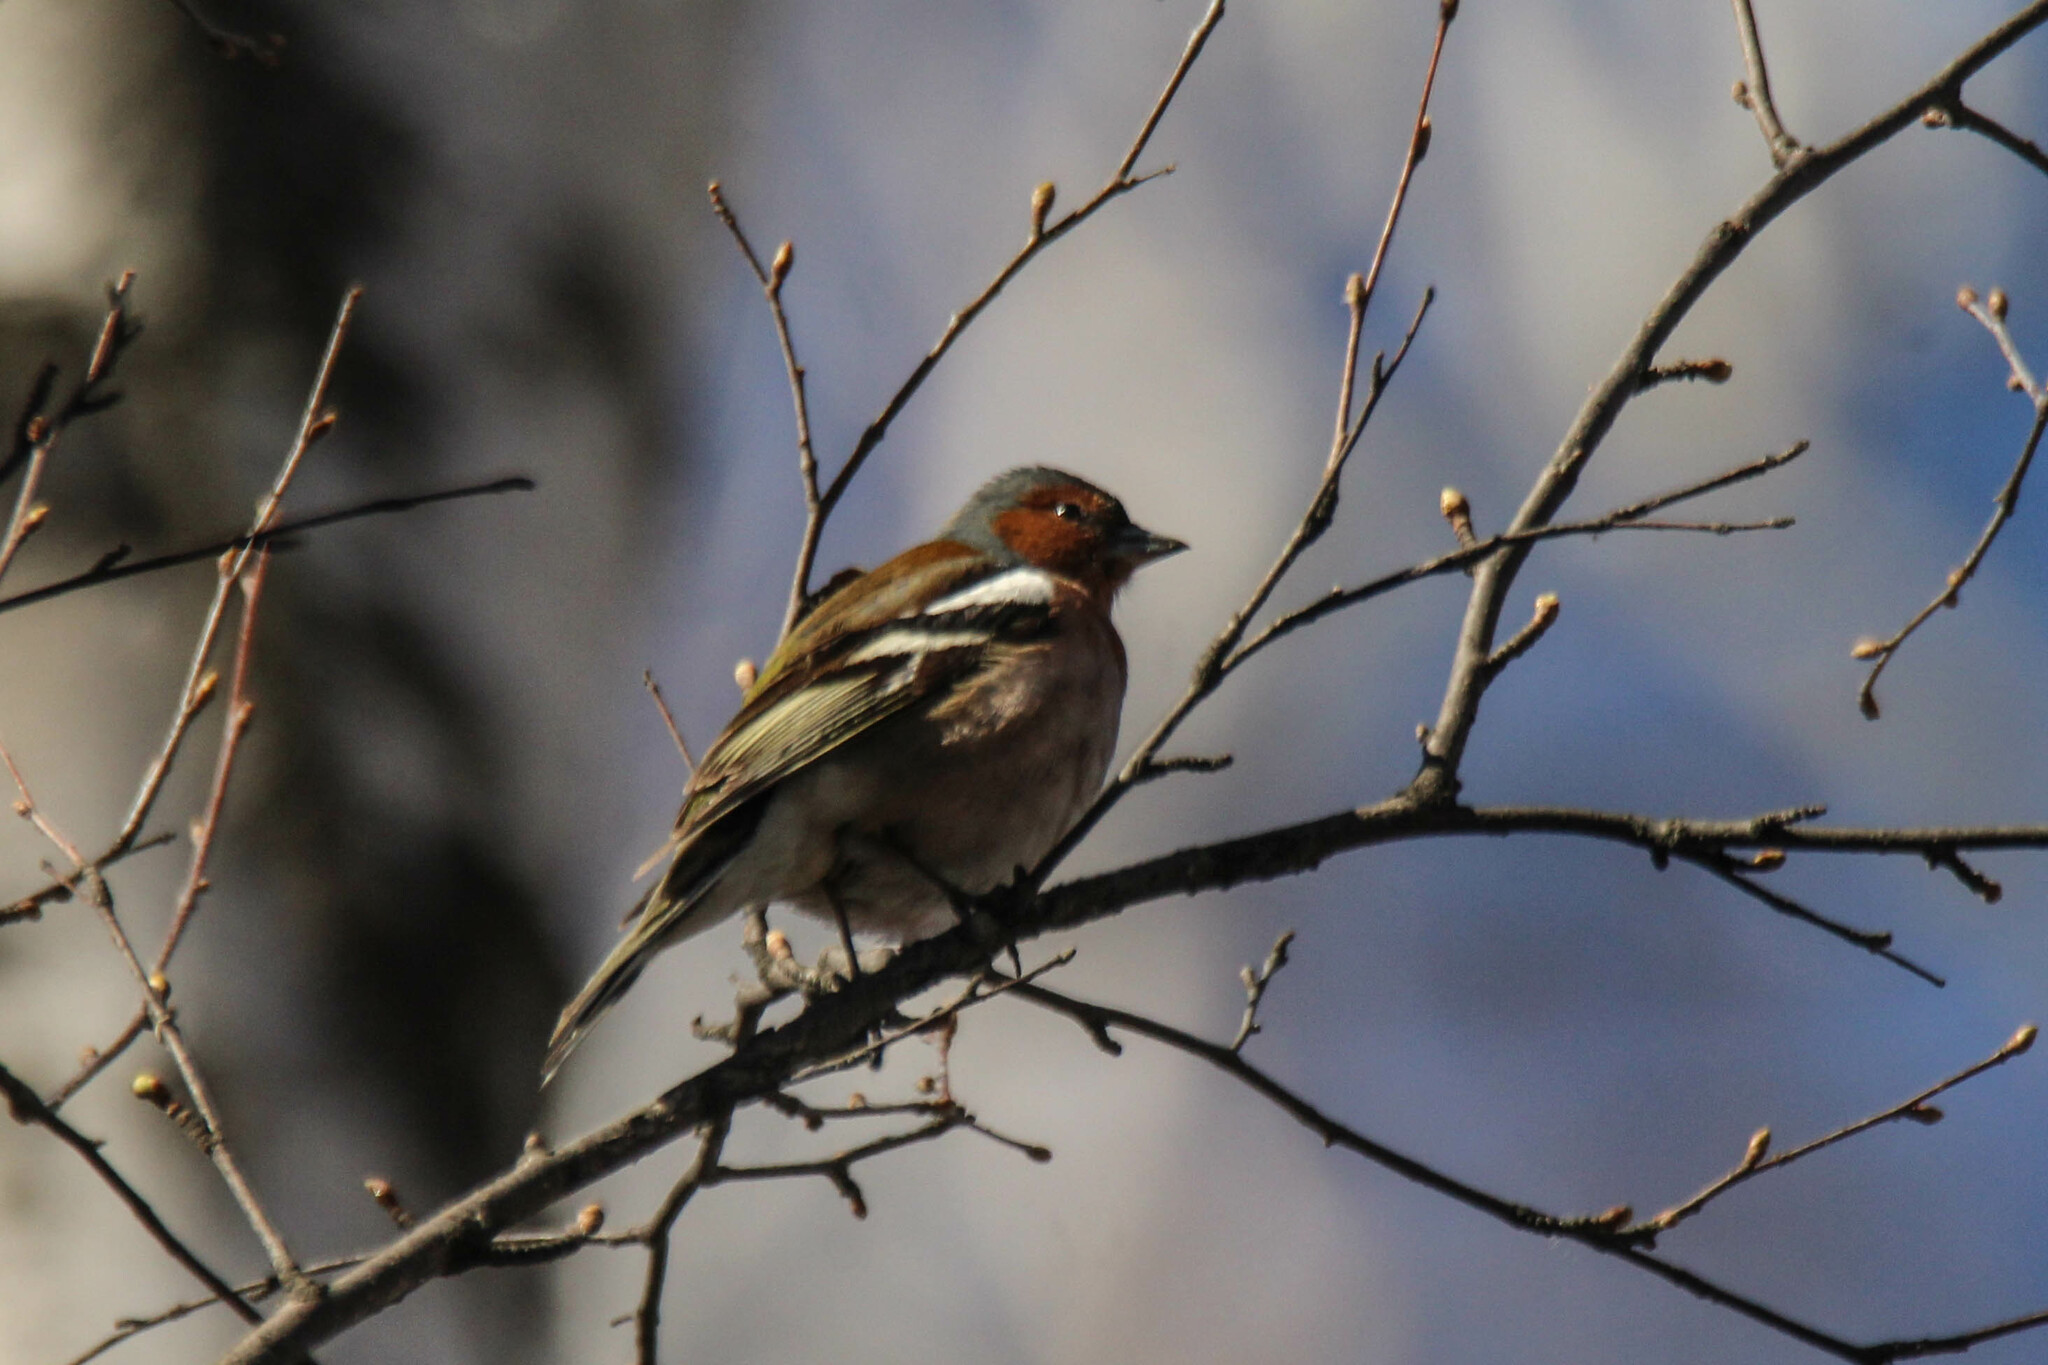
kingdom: Animalia
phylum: Chordata
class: Aves
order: Passeriformes
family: Fringillidae
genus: Fringilla
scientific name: Fringilla coelebs
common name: Common chaffinch
